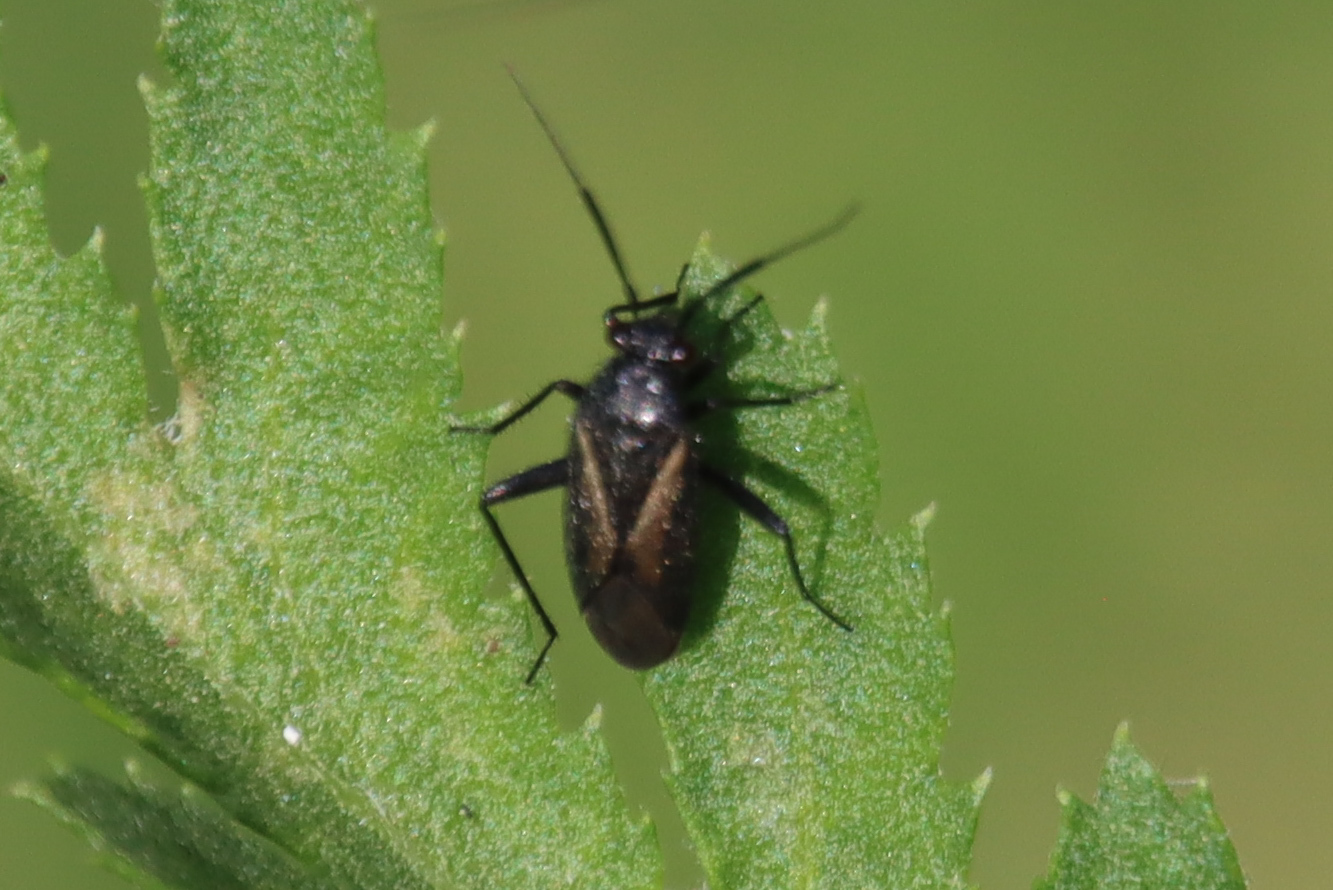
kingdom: Animalia
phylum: Arthropoda
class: Insecta
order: Hemiptera
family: Miridae
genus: Orthocephalus
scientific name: Orthocephalus coriaceus
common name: Plant bug
